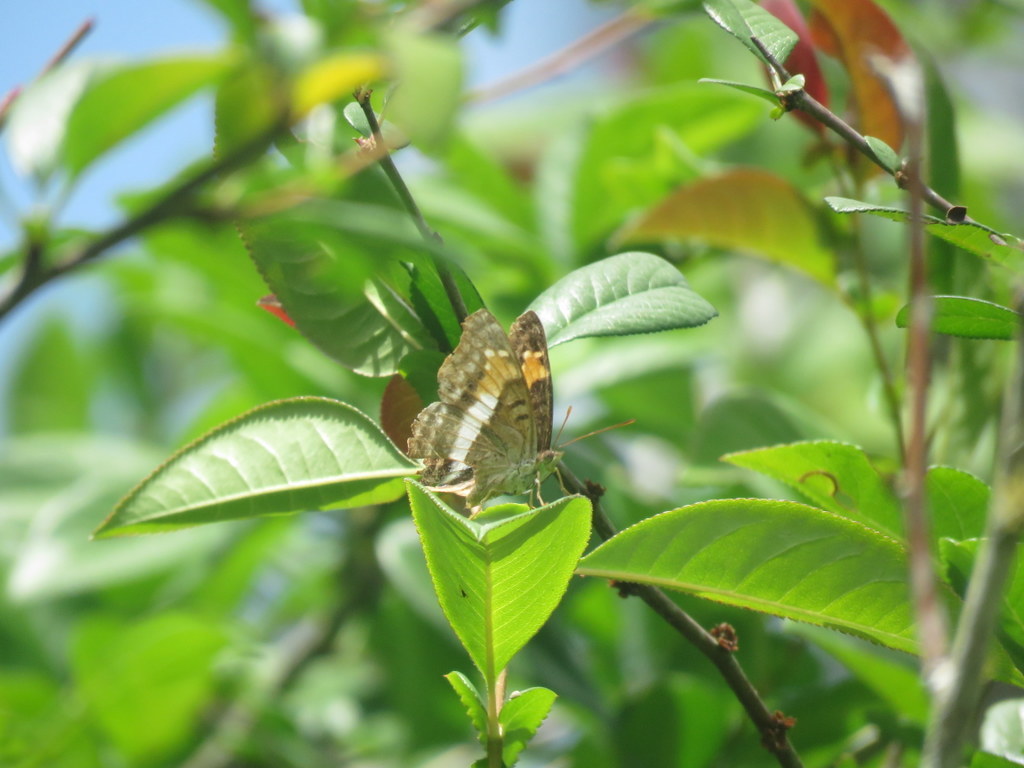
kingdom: Animalia
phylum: Arthropoda
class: Insecta
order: Lepidoptera
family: Nymphalidae
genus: Doxocopa
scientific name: Doxocopa laurentia
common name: Turquoise emperor
